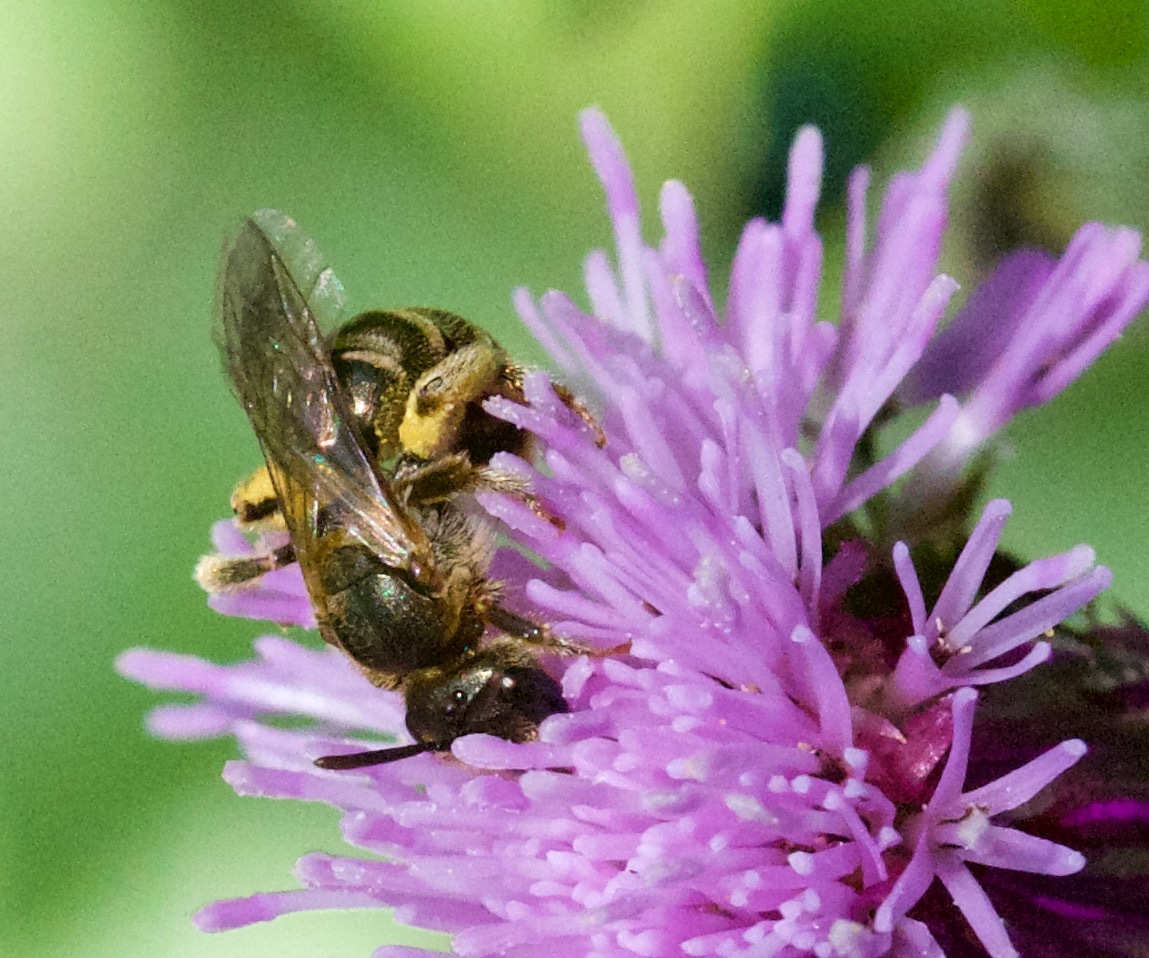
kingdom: Animalia
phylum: Arthropoda
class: Insecta
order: Hymenoptera
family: Halictidae
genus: Halictus
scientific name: Halictus confusus
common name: Southern bronze furrow bee
